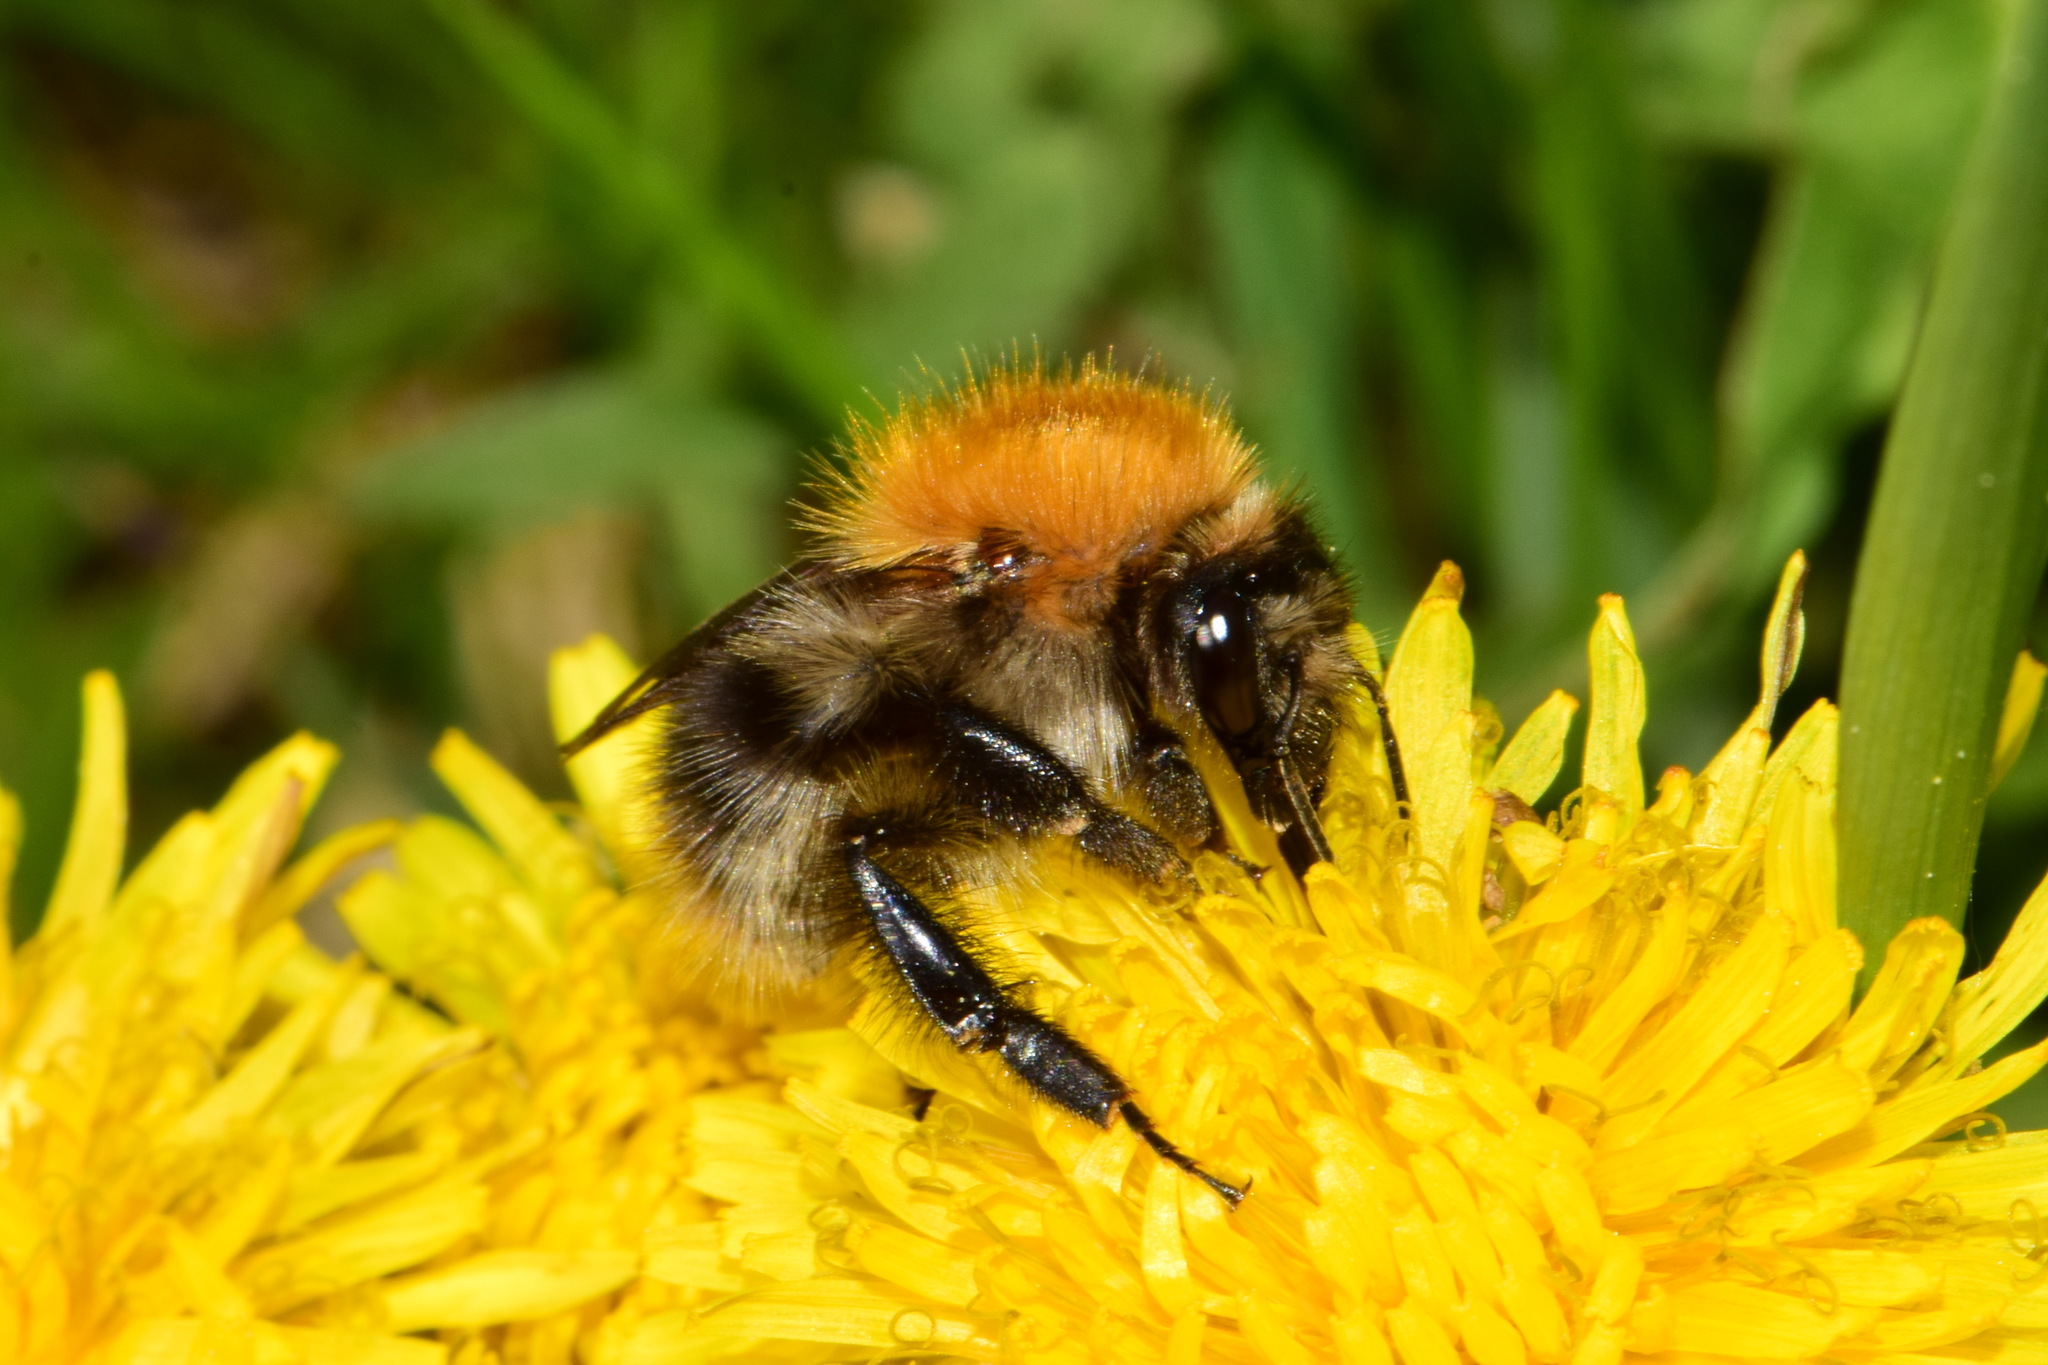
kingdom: Animalia
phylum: Arthropoda
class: Insecta
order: Hymenoptera
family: Apidae
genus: Bombus
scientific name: Bombus pascuorum
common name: Common carder bee
